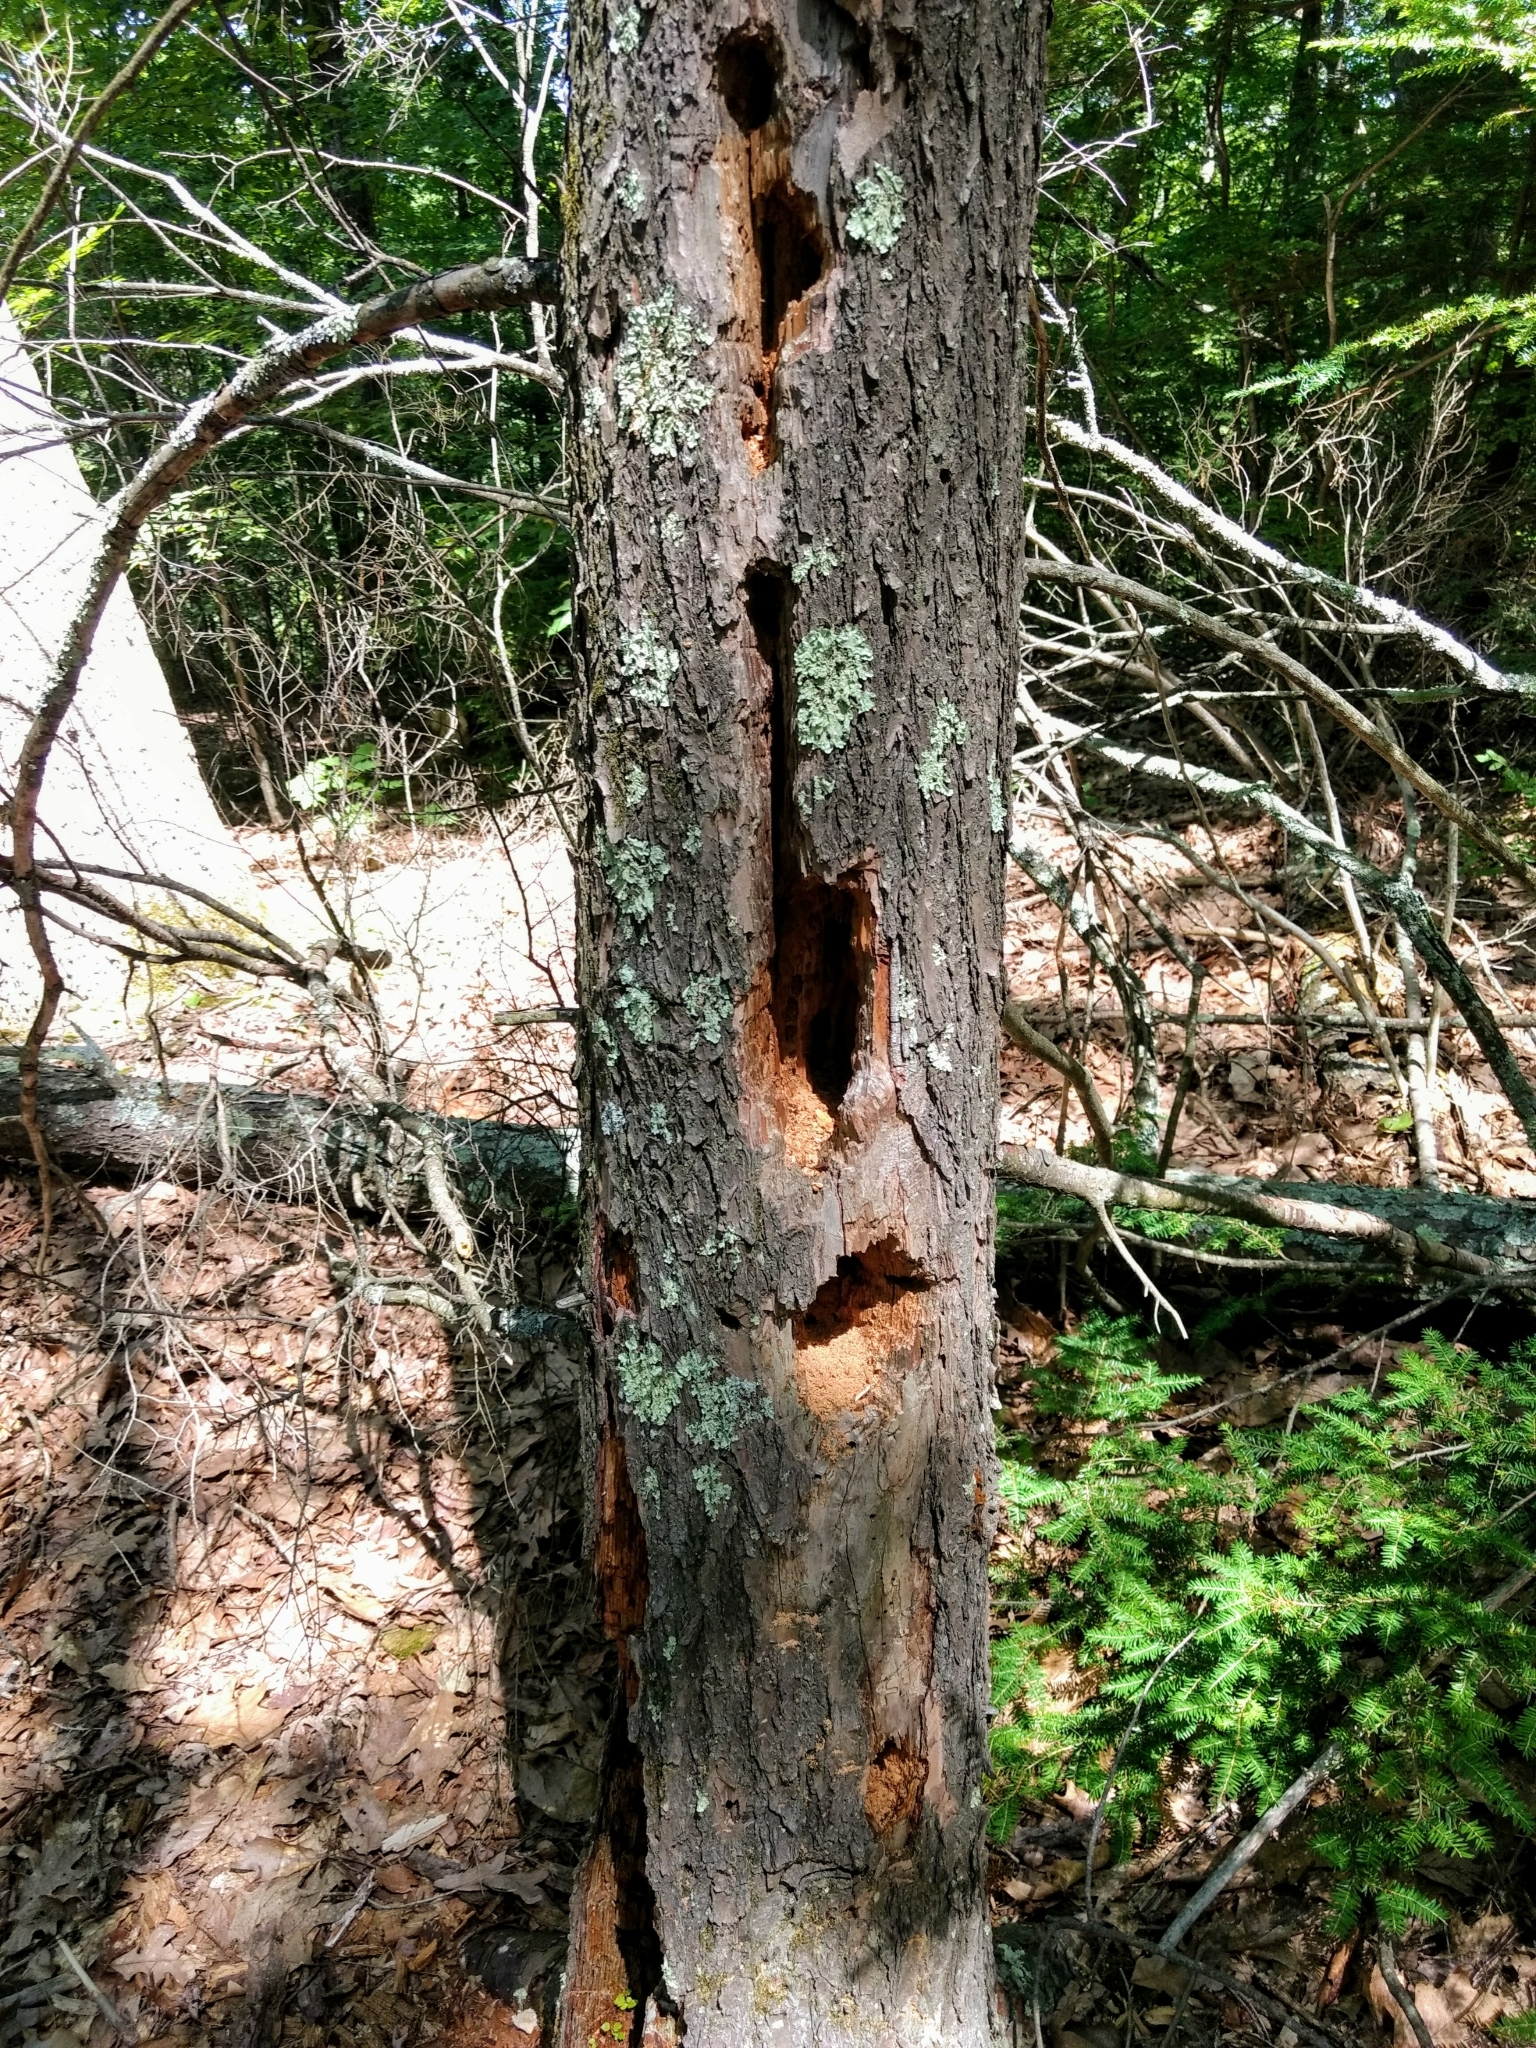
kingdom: Animalia
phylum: Chordata
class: Aves
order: Piciformes
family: Picidae
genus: Dryocopus
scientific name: Dryocopus pileatus
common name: Pileated woodpecker
